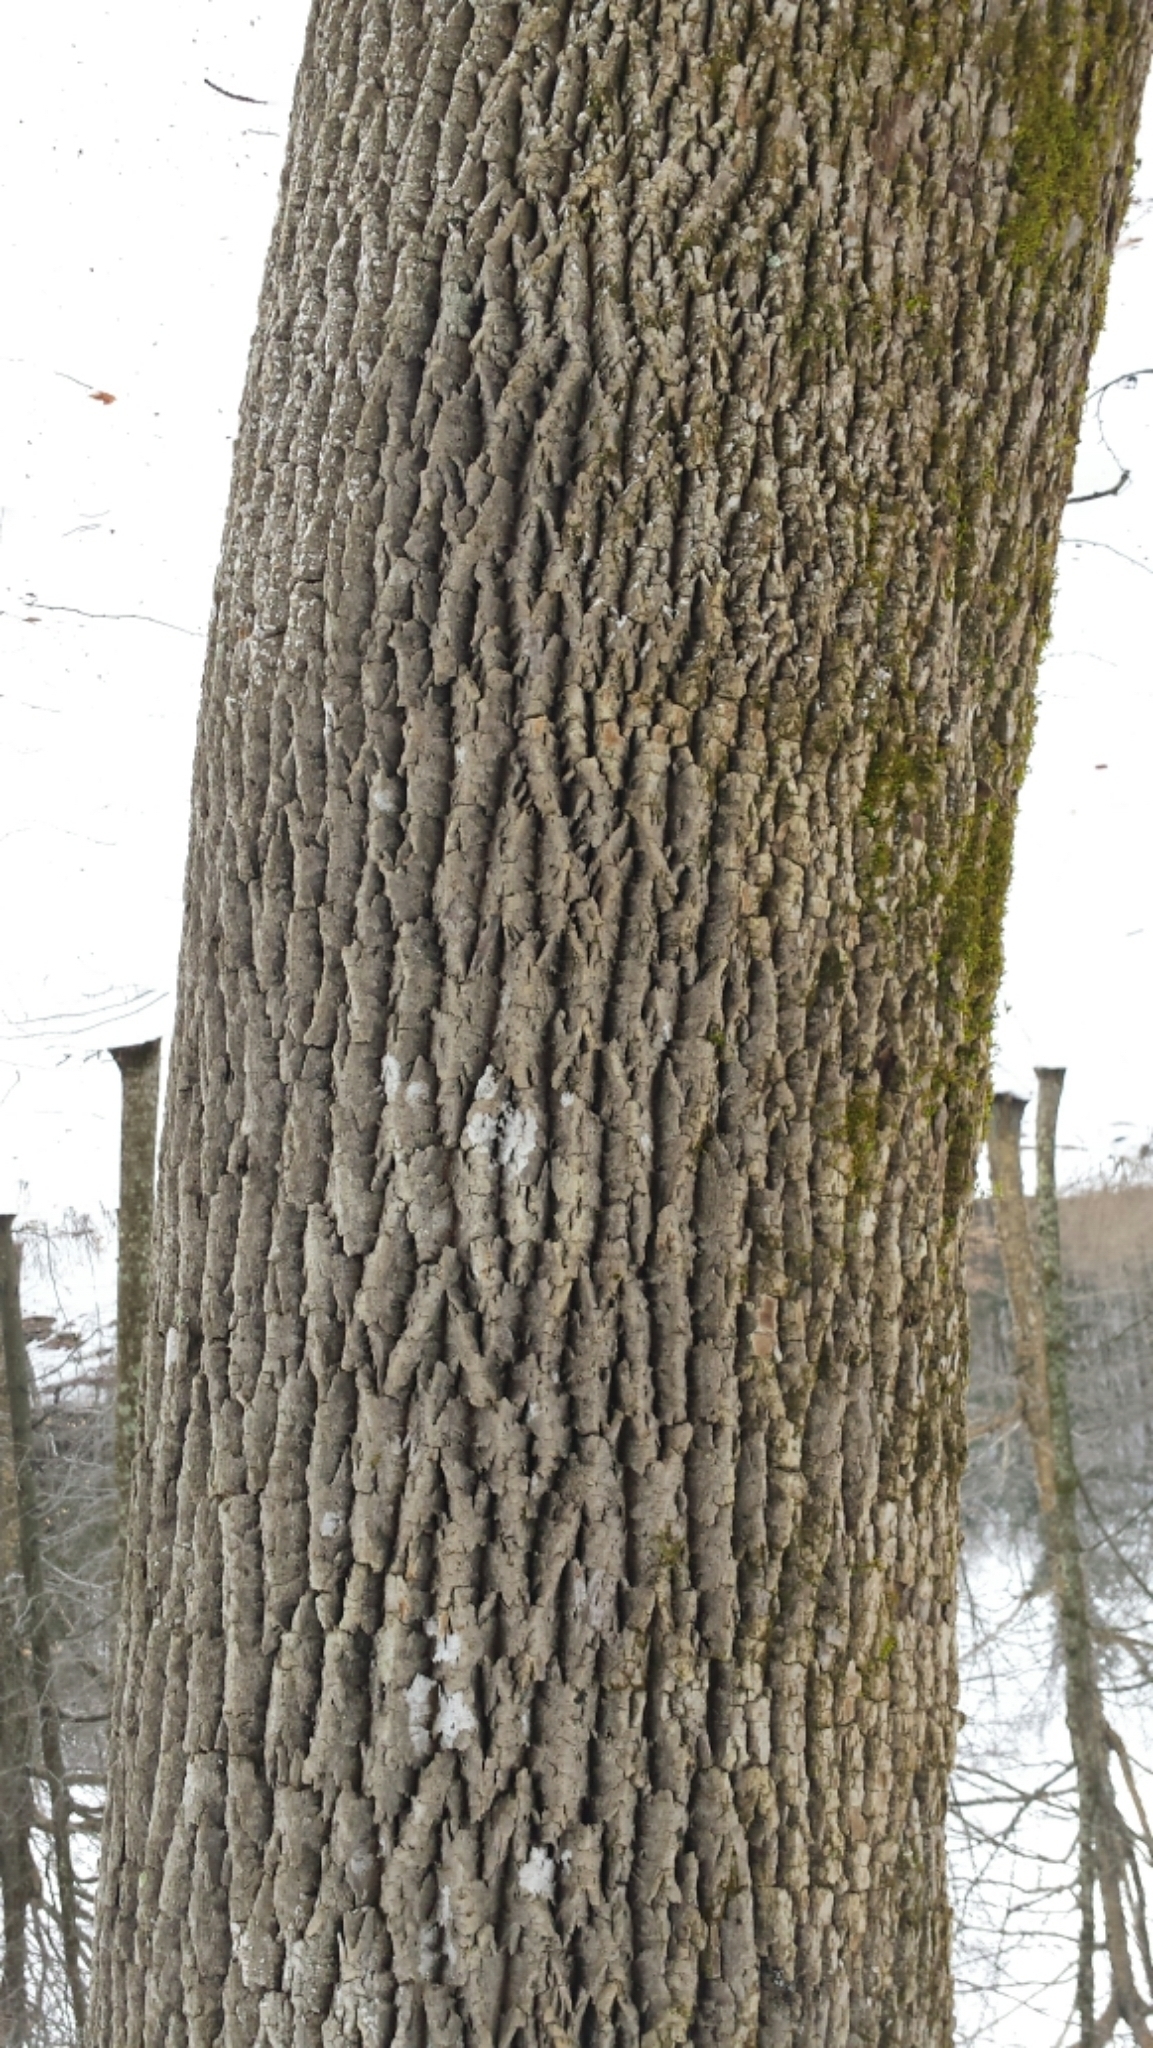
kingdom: Plantae
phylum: Tracheophyta
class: Magnoliopsida
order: Lamiales
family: Oleaceae
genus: Fraxinus
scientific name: Fraxinus americana
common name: White ash
